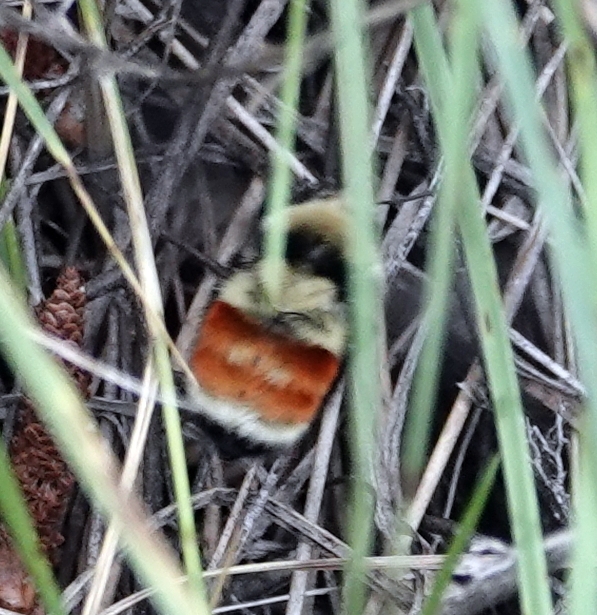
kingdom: Animalia
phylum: Arthropoda
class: Insecta
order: Hymenoptera
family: Apidae
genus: Bombus
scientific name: Bombus huntii
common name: Hunt bumble bee
